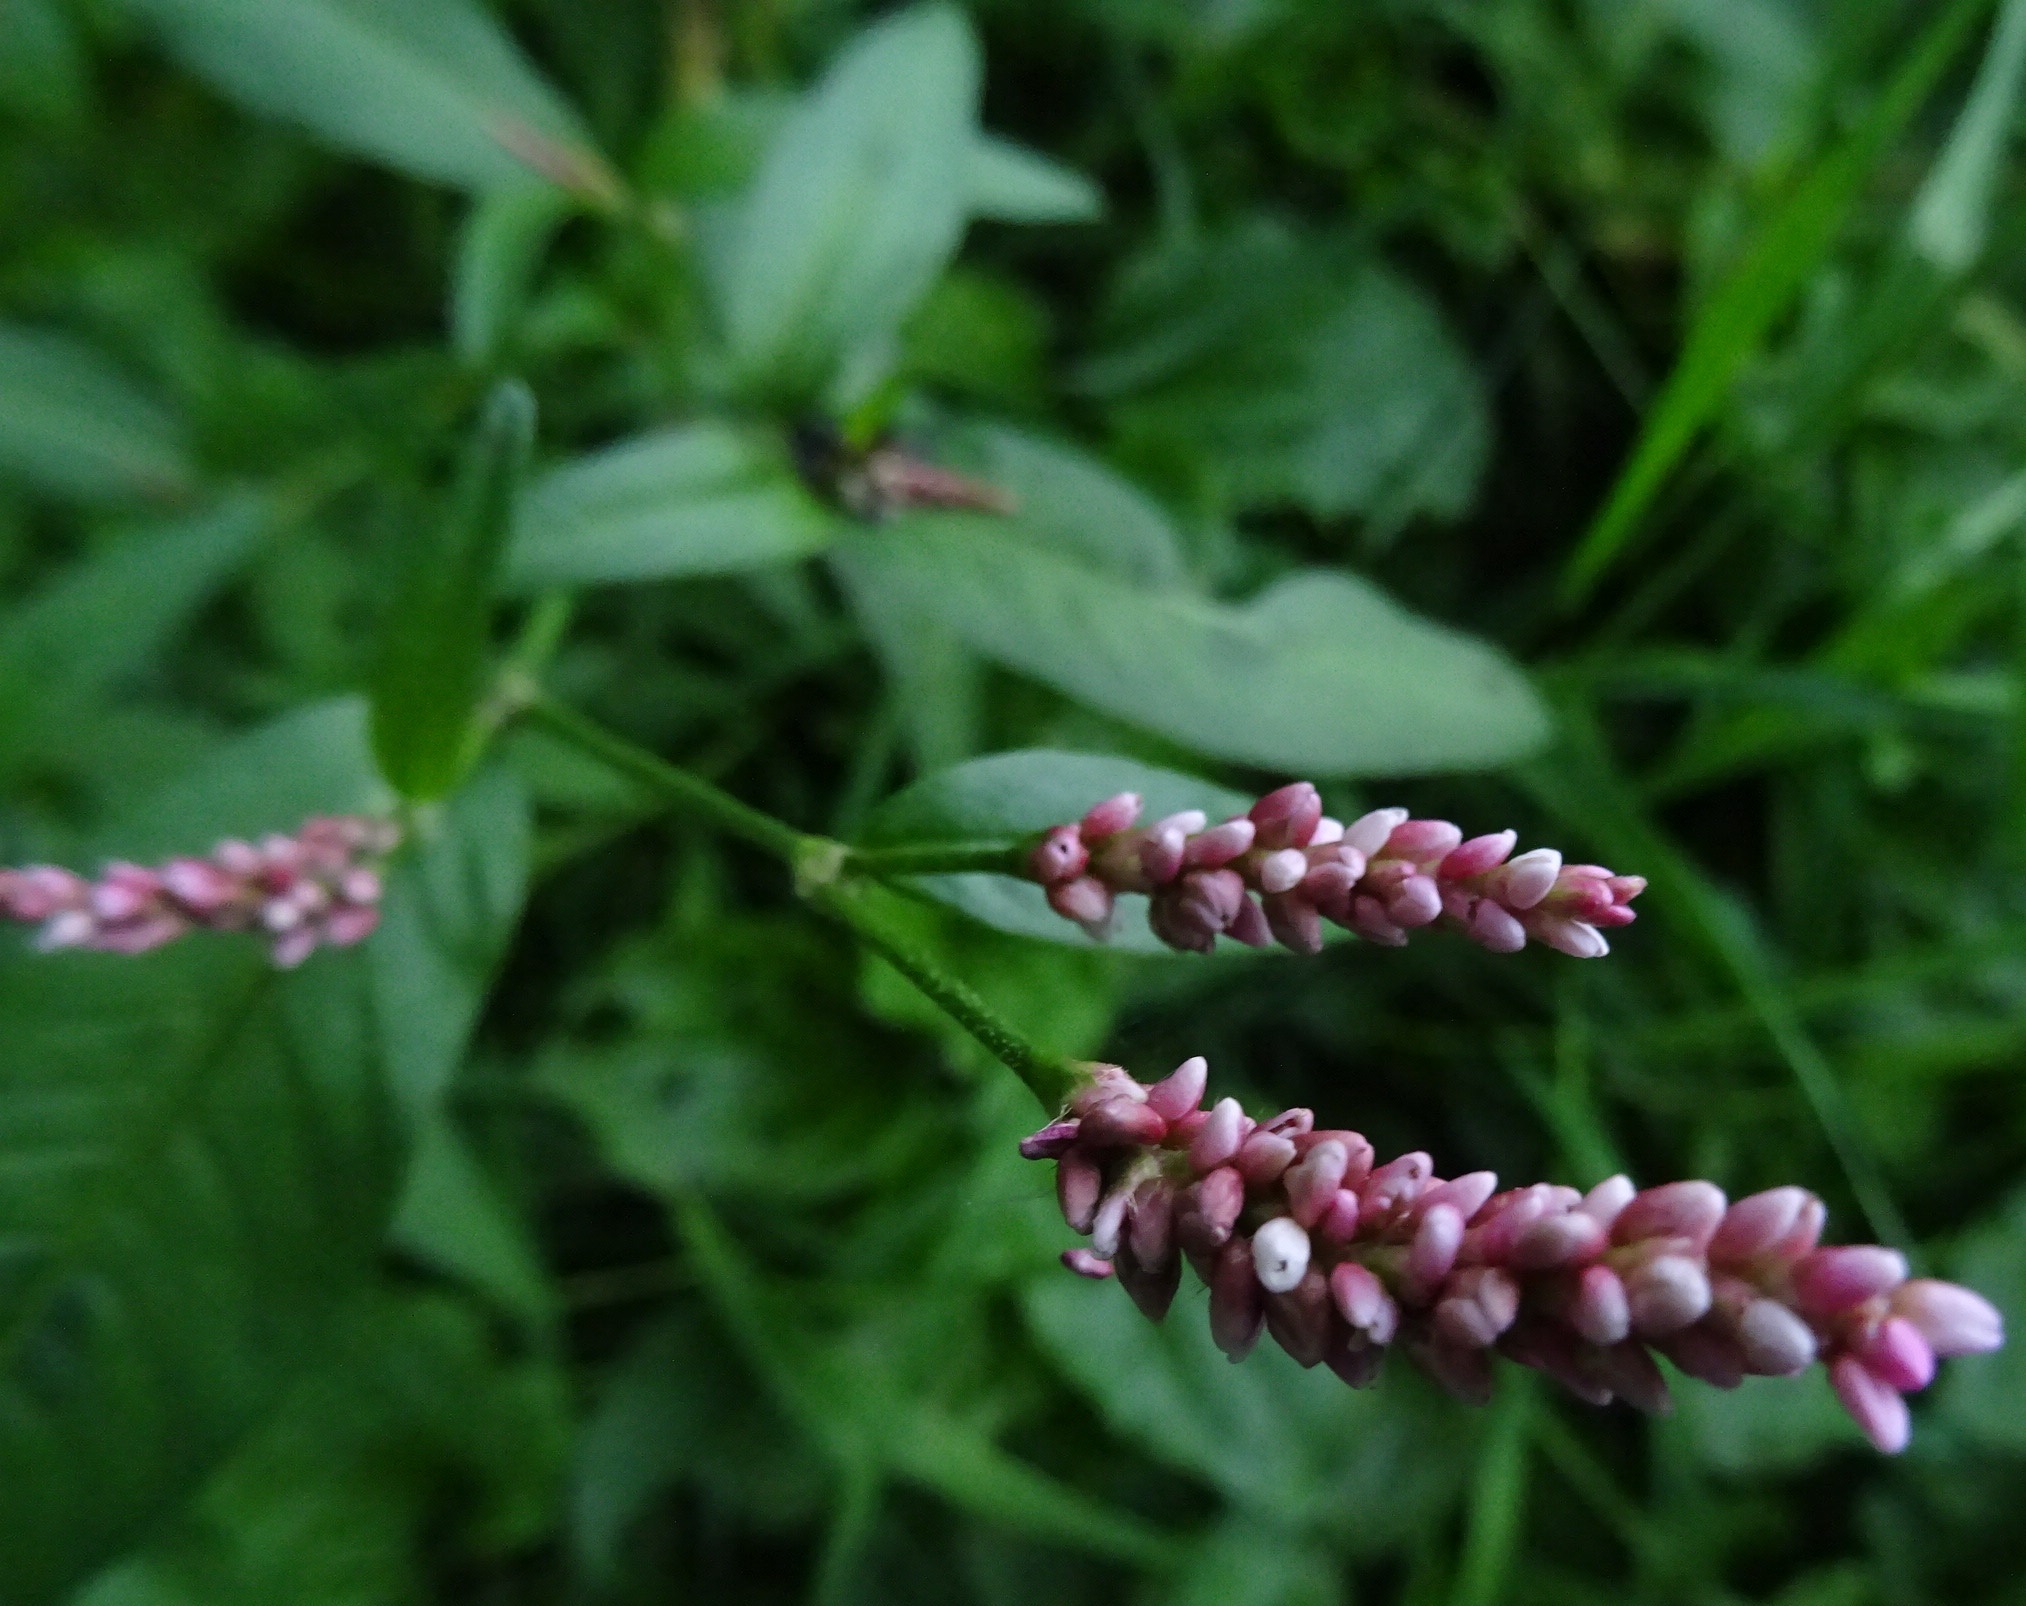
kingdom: Plantae
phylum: Tracheophyta
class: Magnoliopsida
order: Caryophyllales
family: Polygonaceae
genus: Persicaria
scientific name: Persicaria maculosa
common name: Redshank
